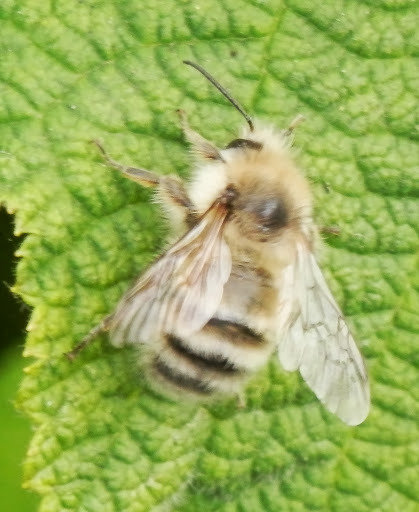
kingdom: Animalia
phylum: Arthropoda
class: Insecta
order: Hymenoptera
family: Apidae
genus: Bombus
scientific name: Bombus
